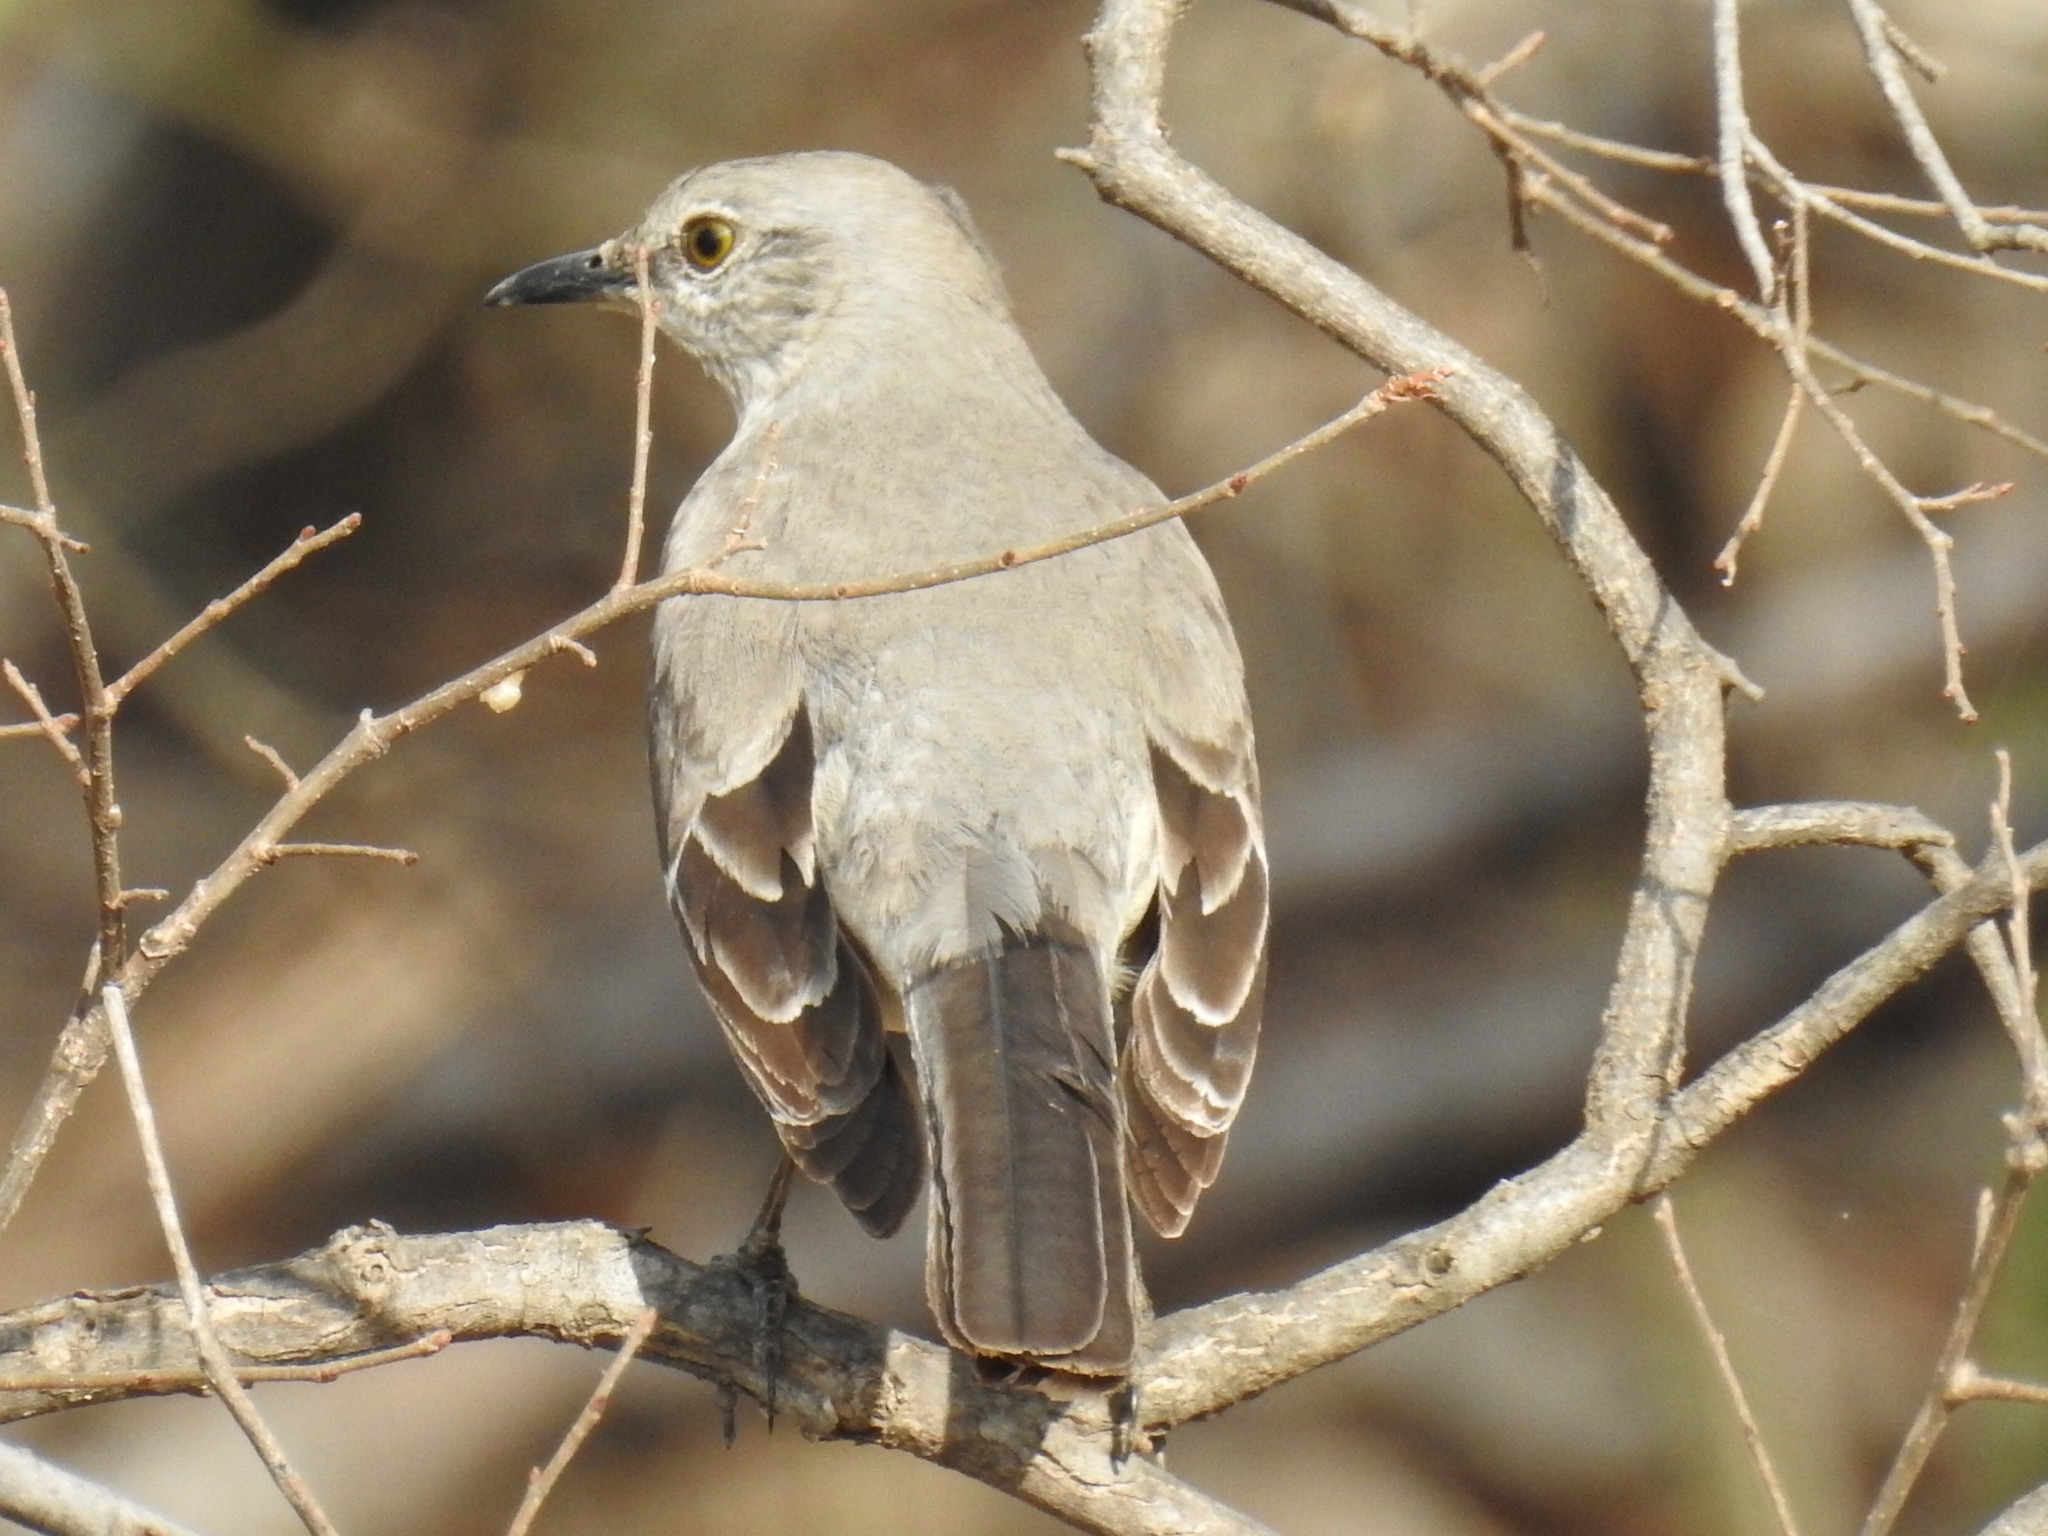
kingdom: Animalia
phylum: Chordata
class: Aves
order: Passeriformes
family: Mimidae
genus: Mimus
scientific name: Mimus polyglottos
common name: Northern mockingbird
